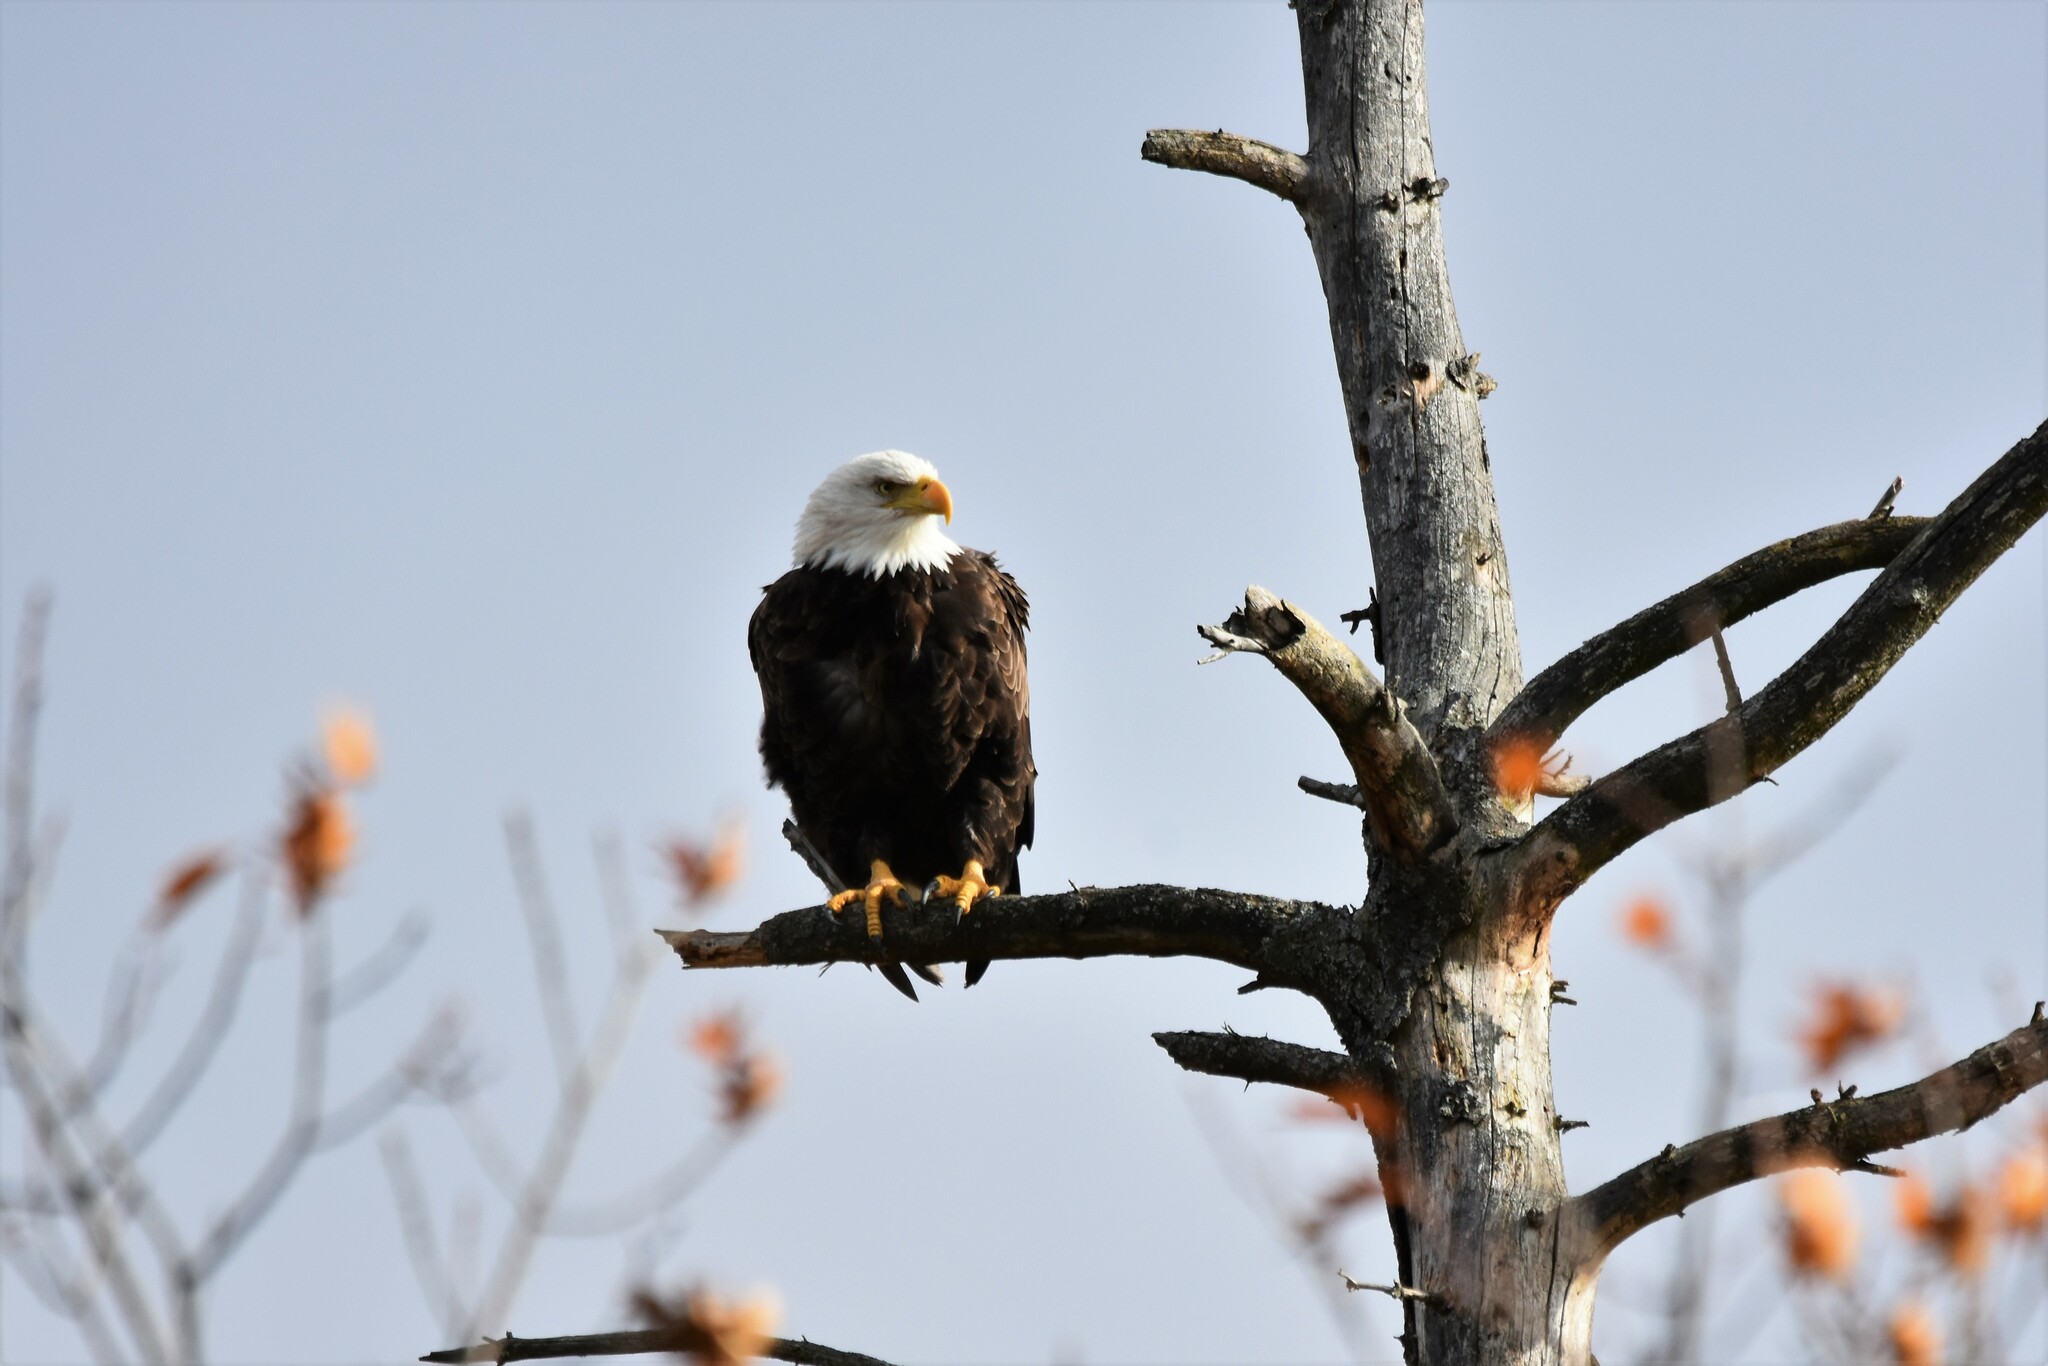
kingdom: Animalia
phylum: Chordata
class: Aves
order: Accipitriformes
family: Accipitridae
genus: Haliaeetus
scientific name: Haliaeetus leucocephalus
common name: Bald eagle
